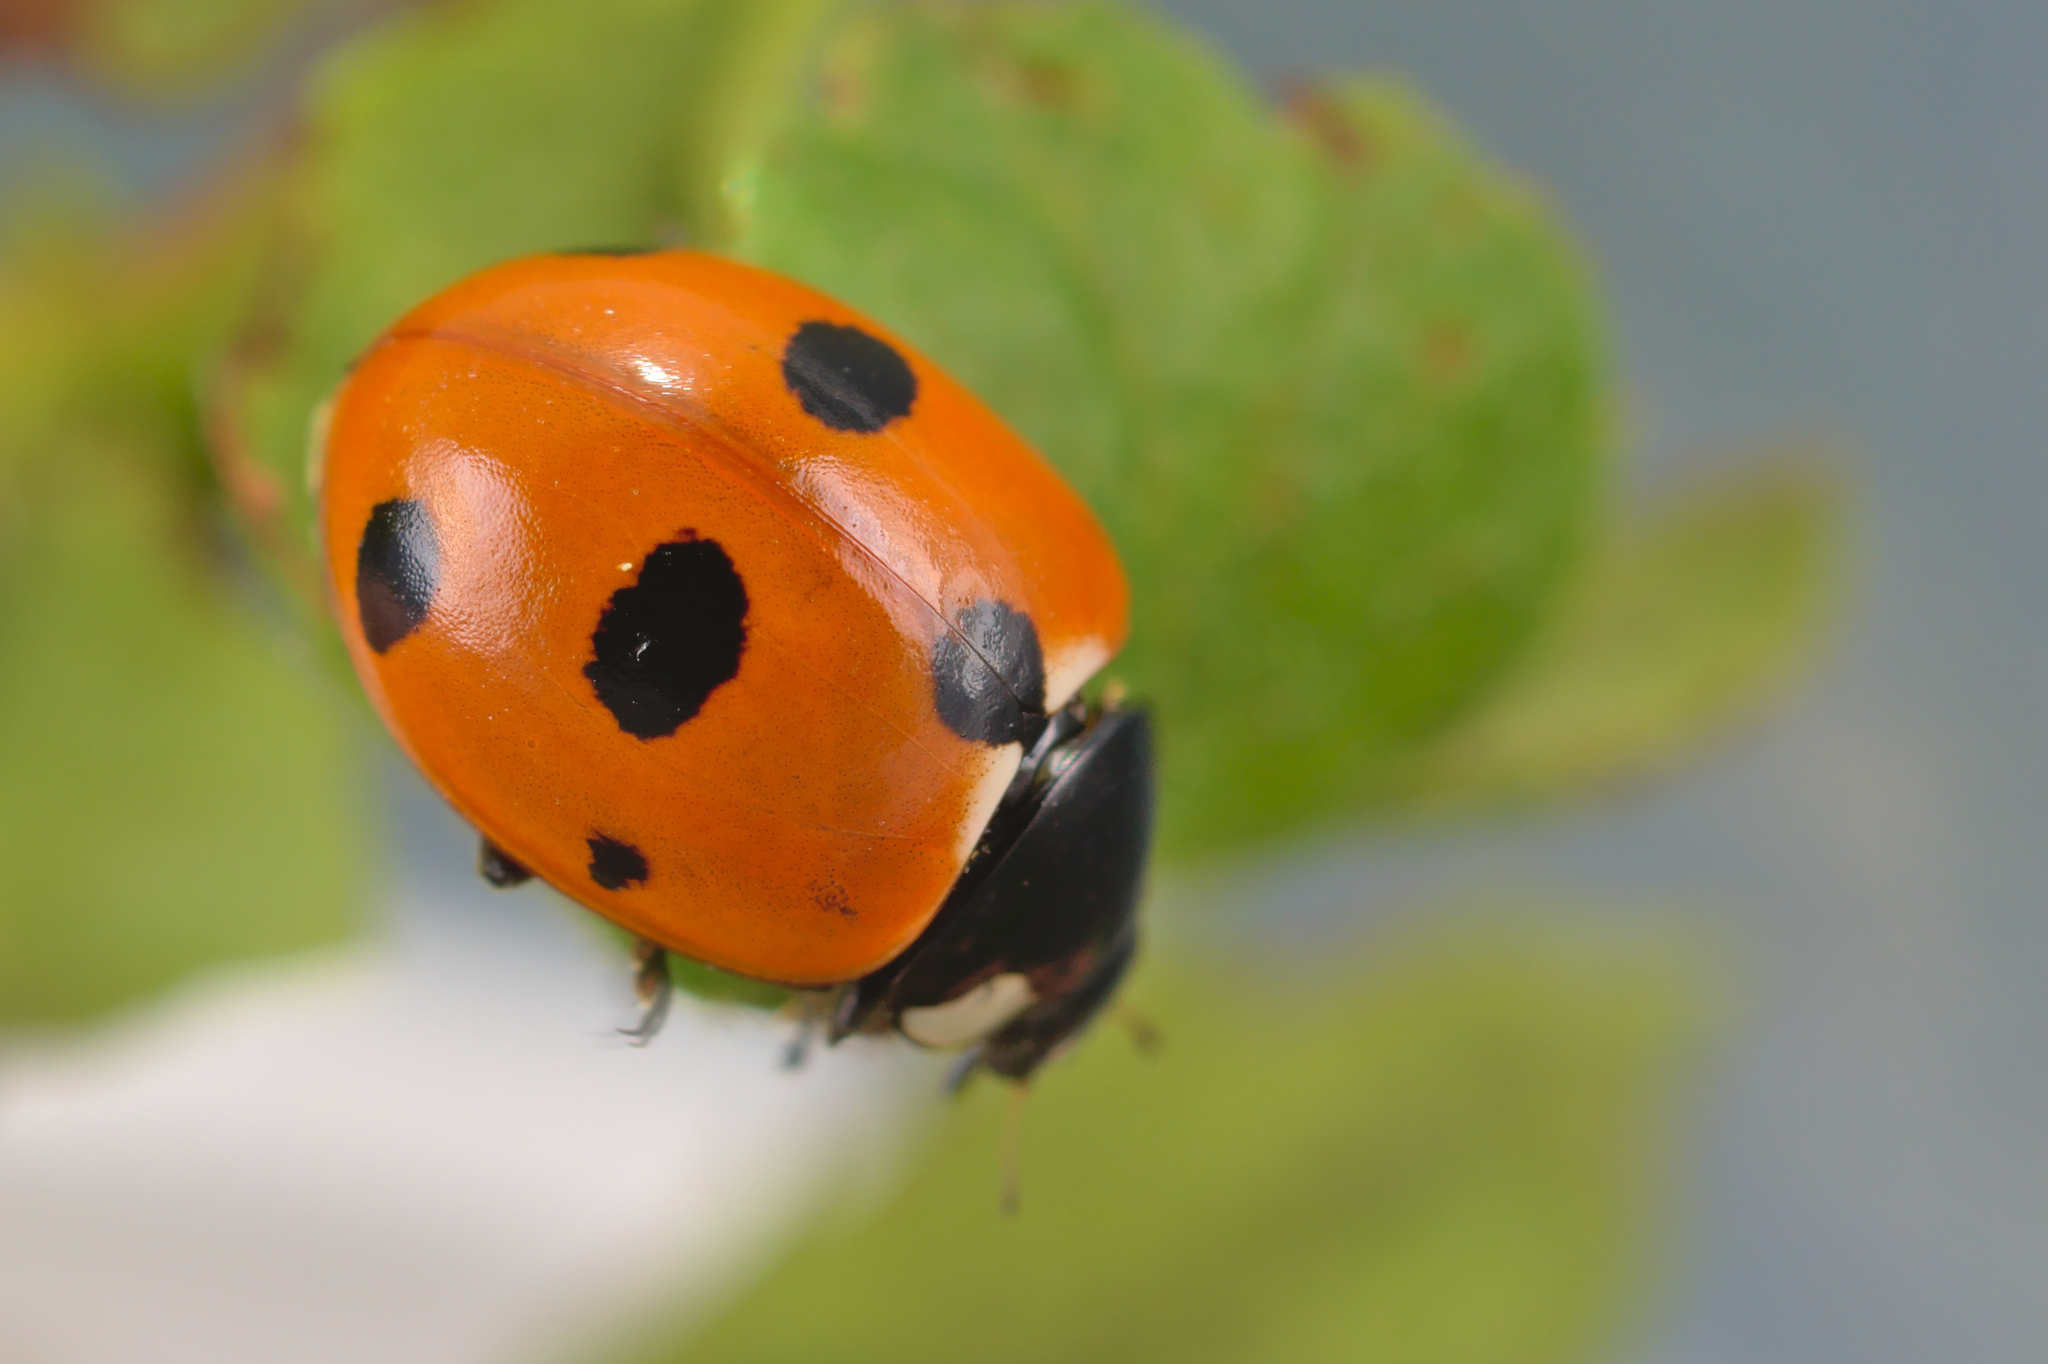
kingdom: Animalia
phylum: Arthropoda
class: Insecta
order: Coleoptera
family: Coccinellidae
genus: Coccinella
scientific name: Coccinella magnifica
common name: Scarce 7-spot ladybird
